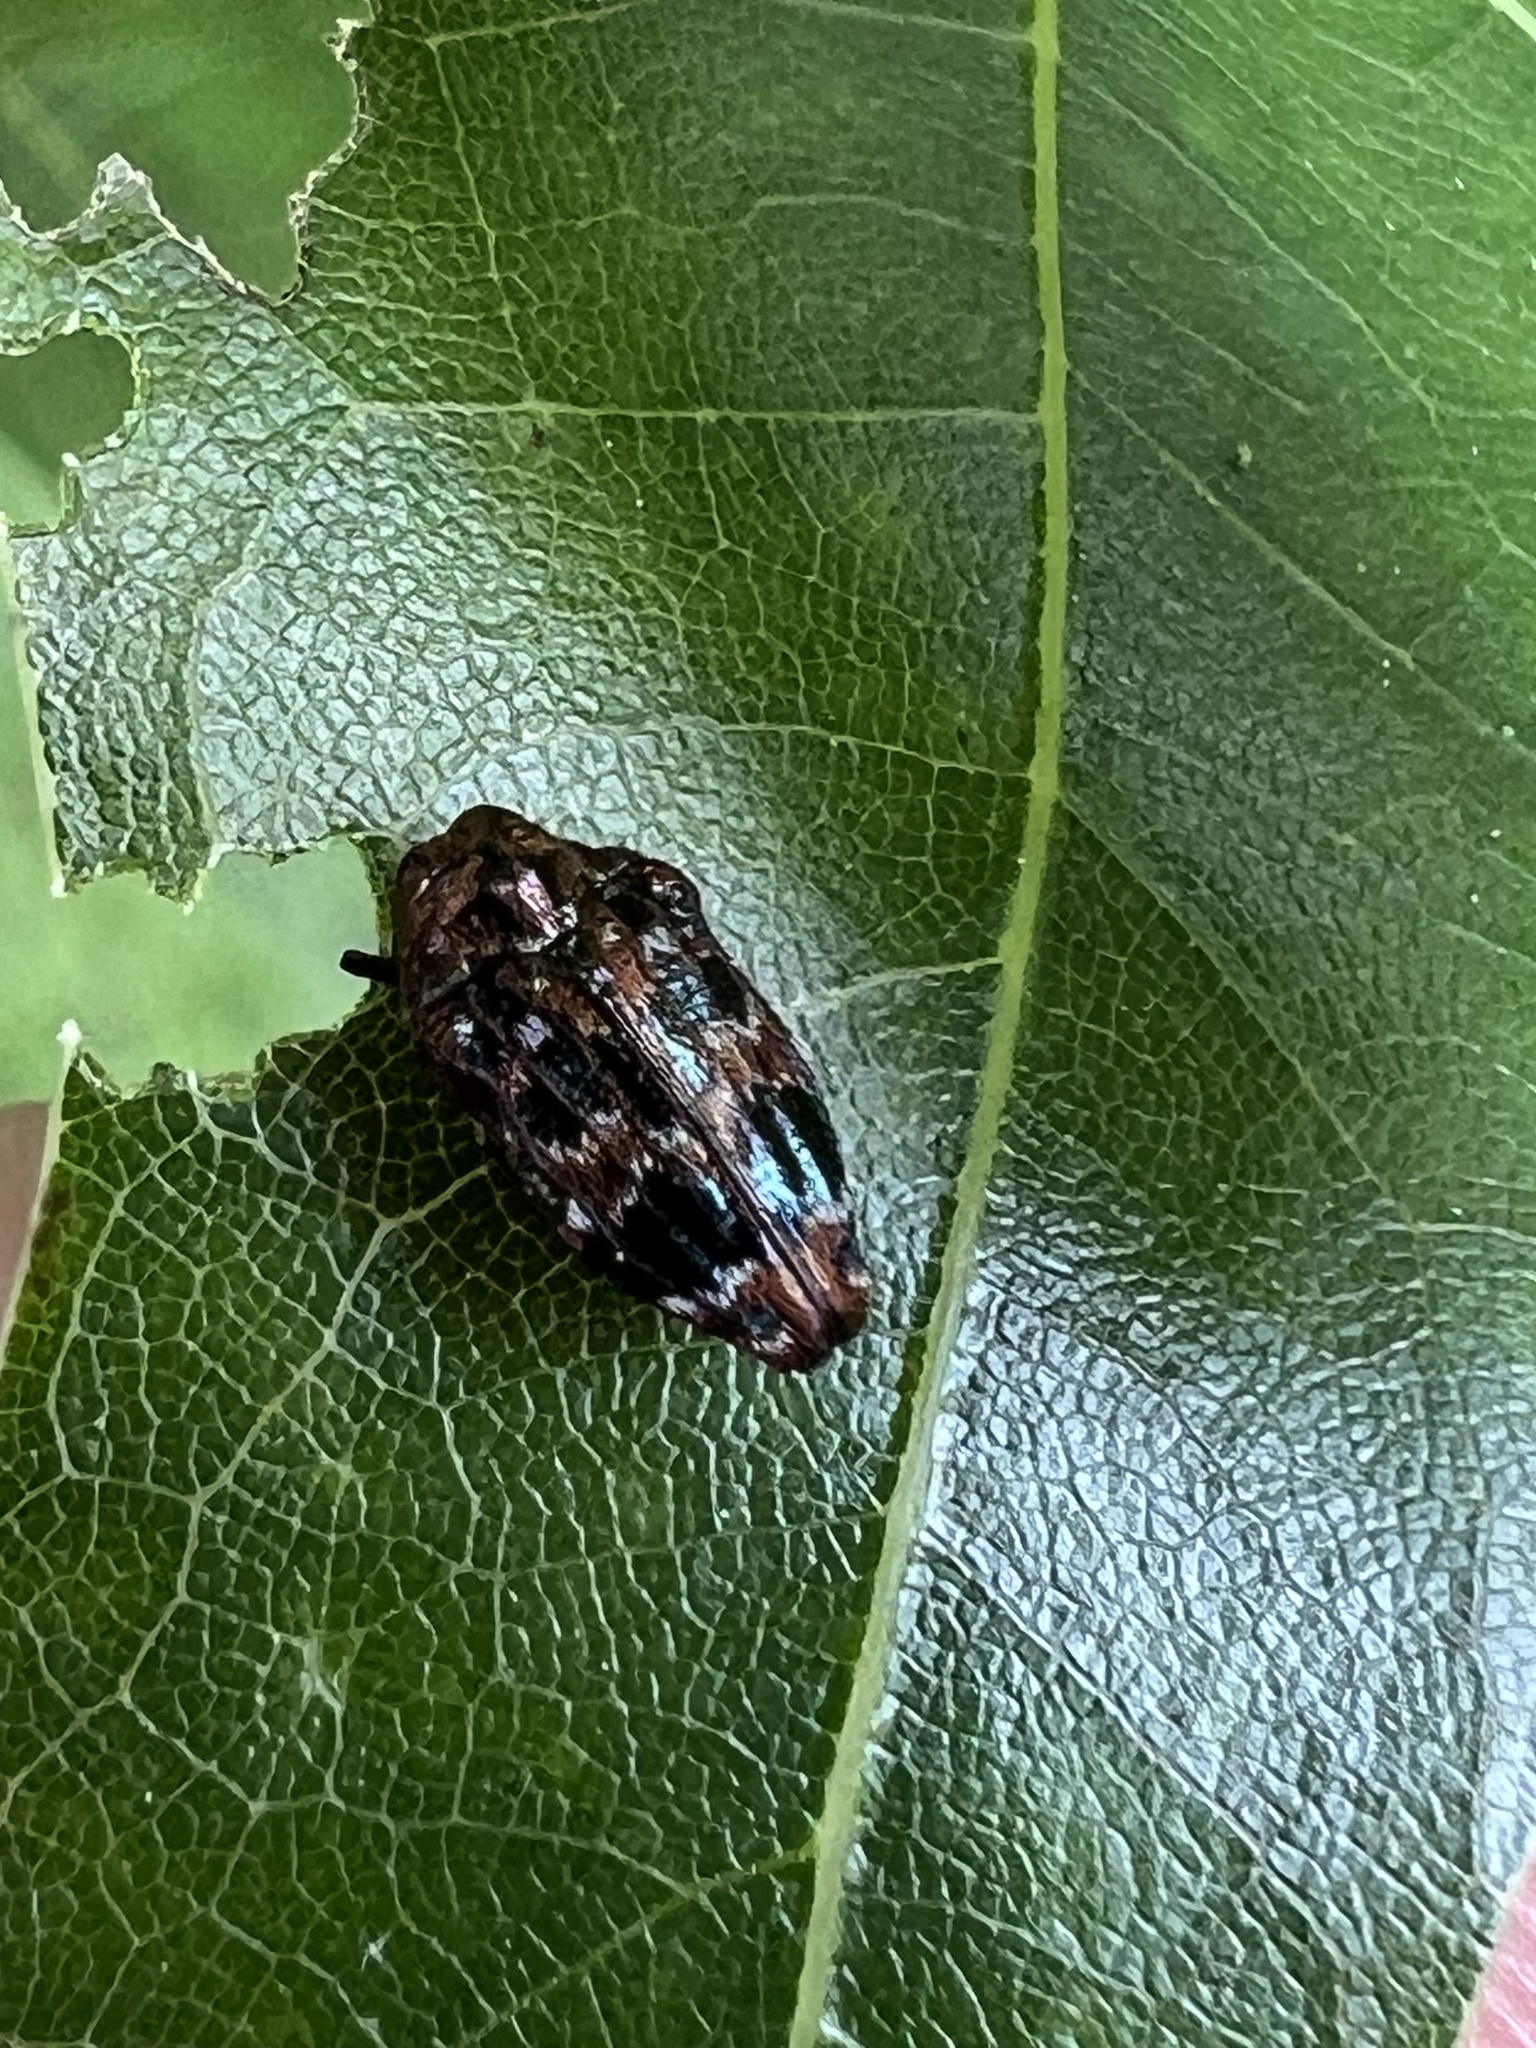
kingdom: Animalia
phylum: Arthropoda
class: Insecta
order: Coleoptera
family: Buprestidae
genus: Brachys
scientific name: Brachys ovatus
